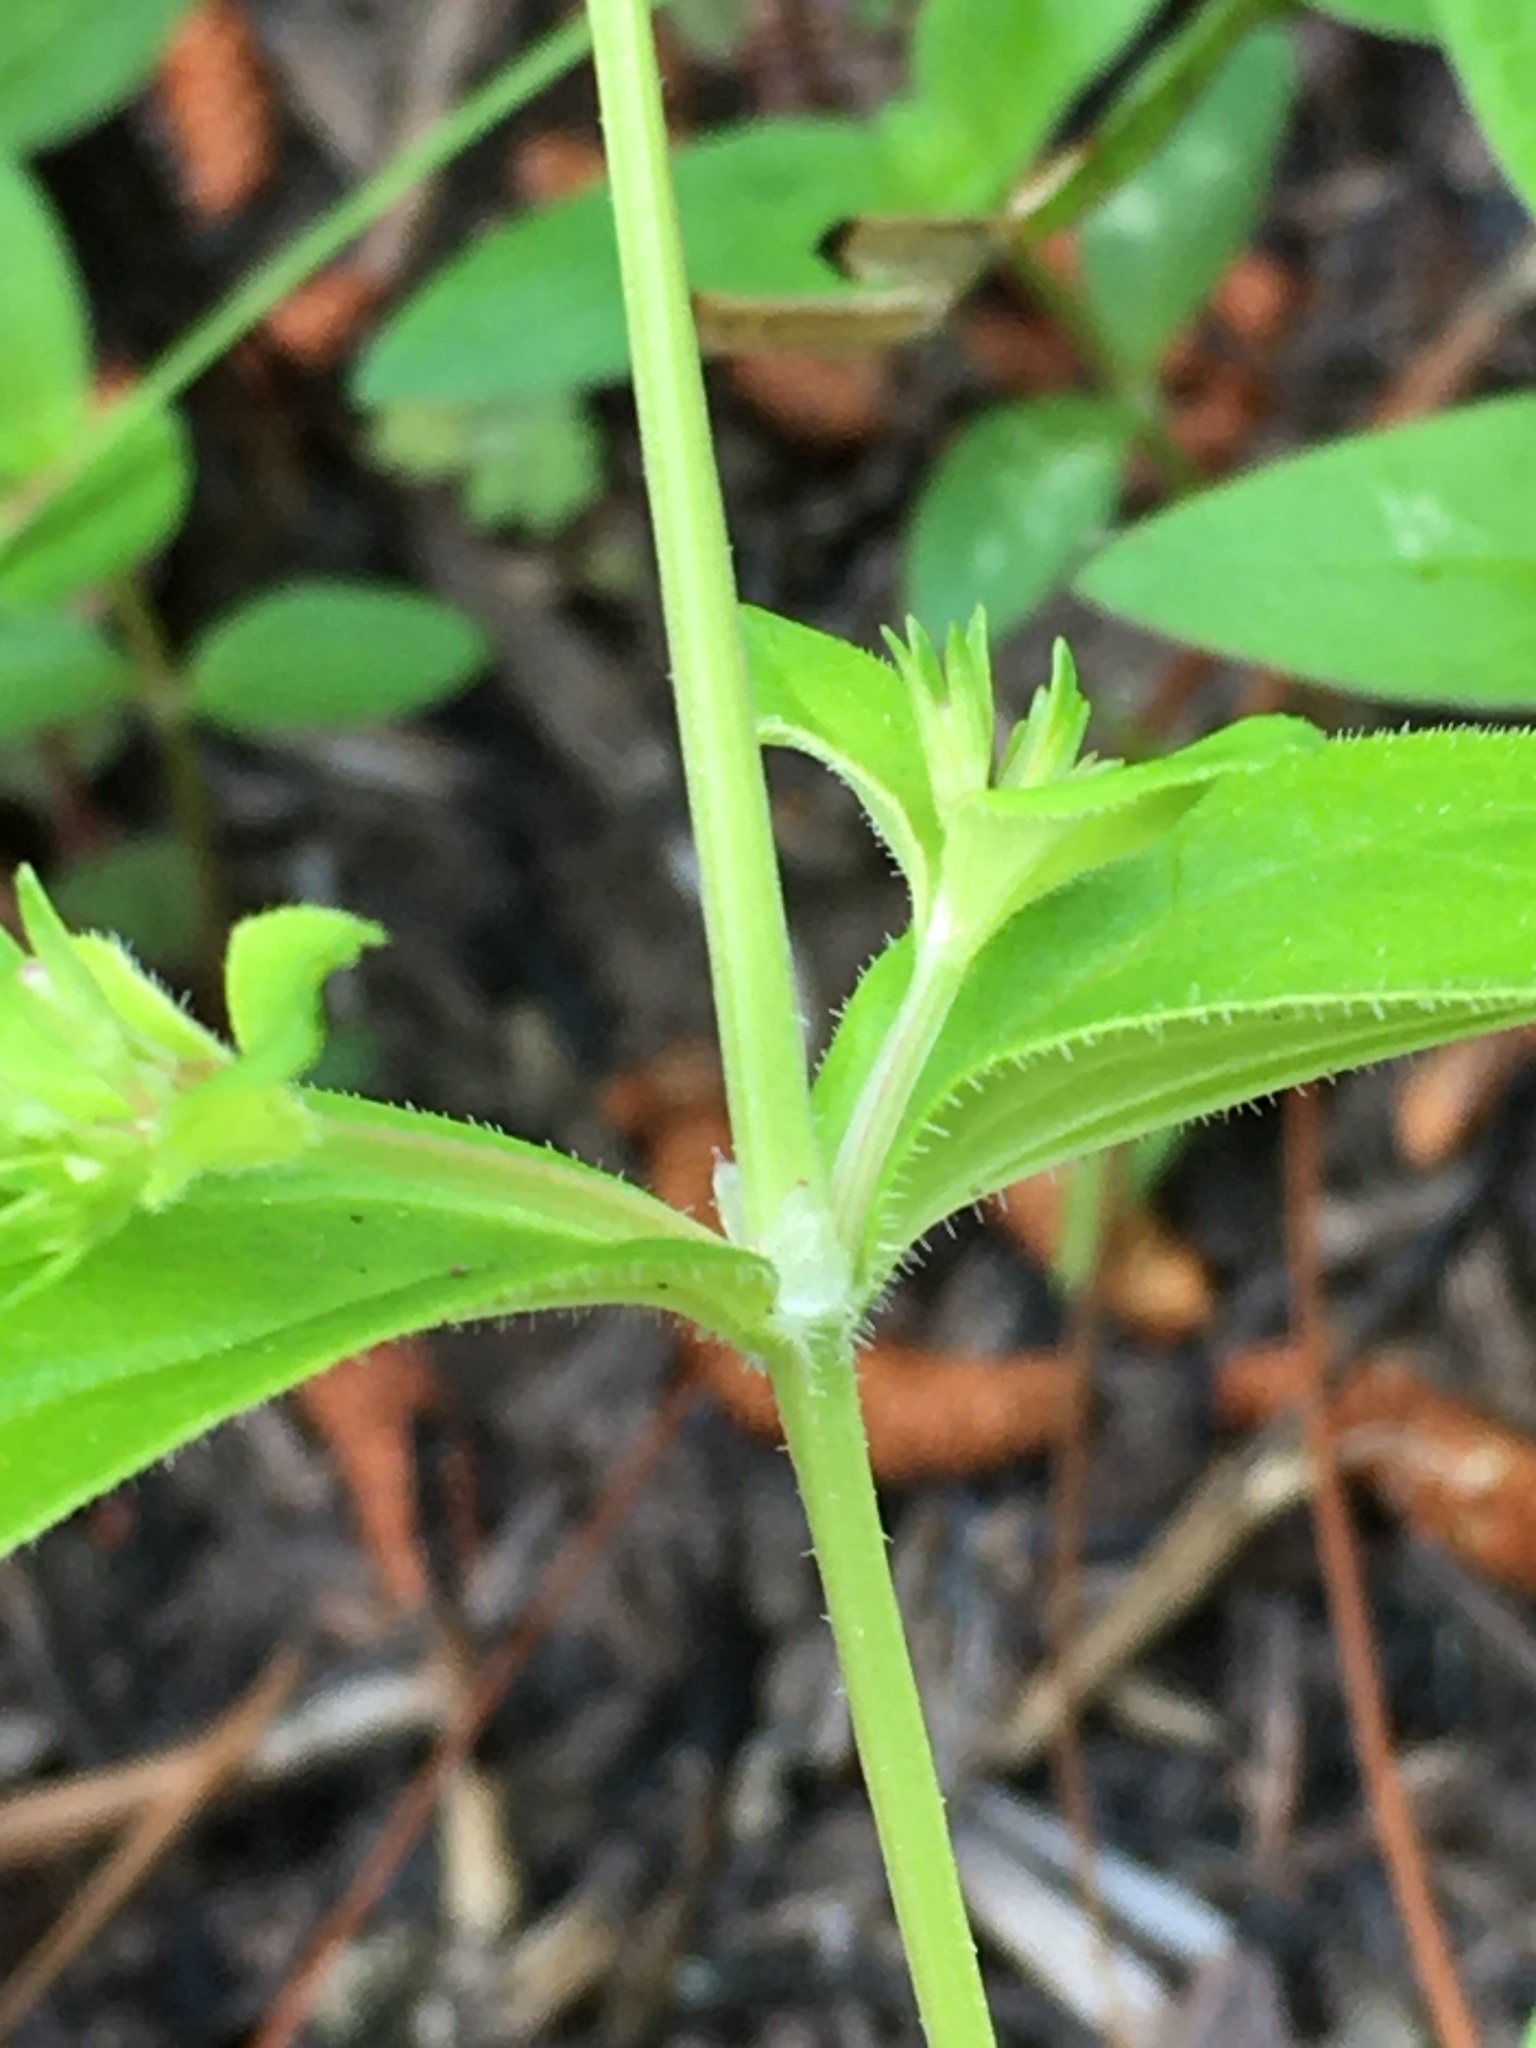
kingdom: Plantae
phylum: Tracheophyta
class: Magnoliopsida
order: Gentianales
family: Rubiaceae
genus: Houstonia
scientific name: Houstonia purpurea
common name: Summer bluet
